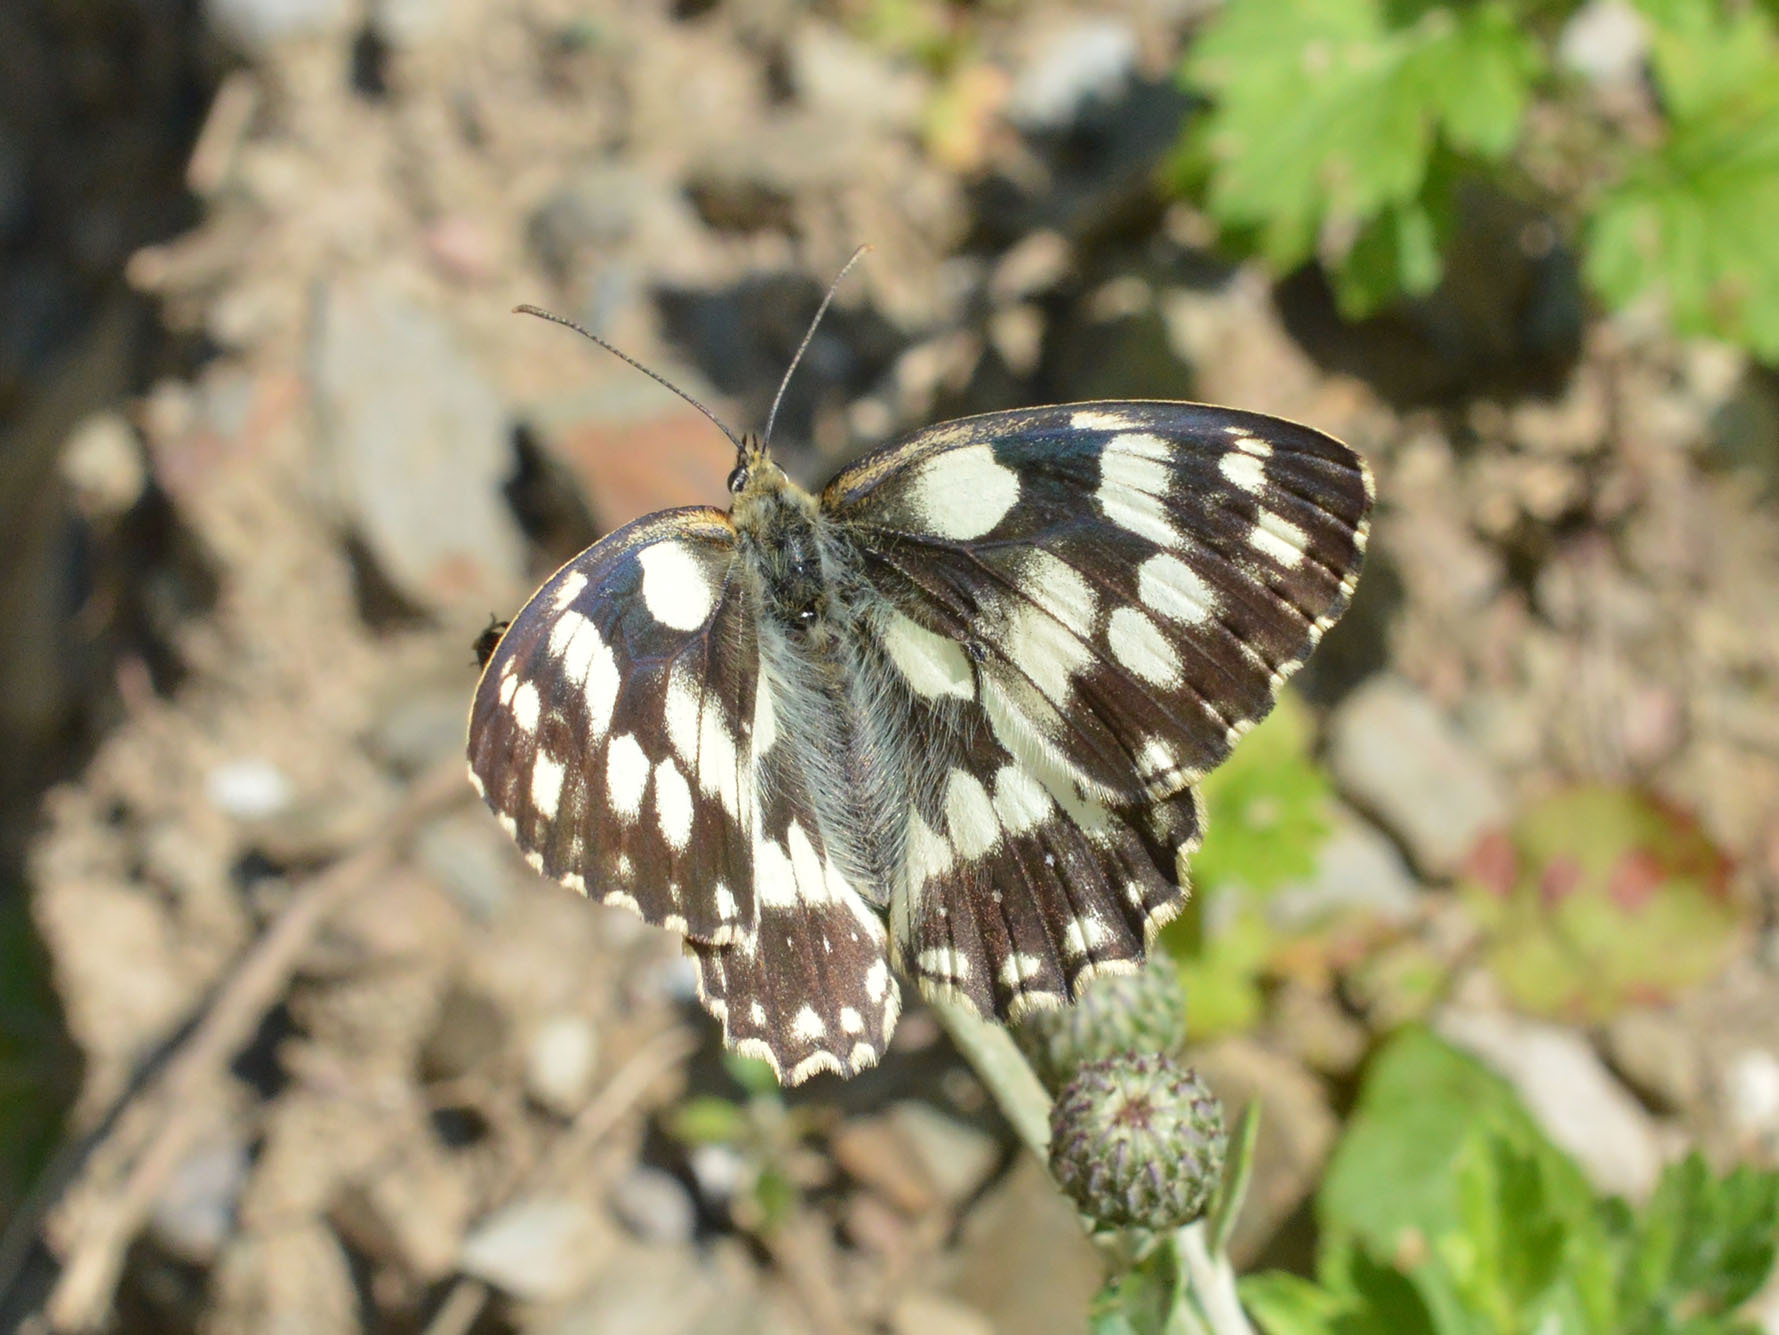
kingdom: Animalia
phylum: Arthropoda
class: Insecta
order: Lepidoptera
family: Nymphalidae
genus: Melanargia
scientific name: Melanargia galathea
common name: Marbled white
